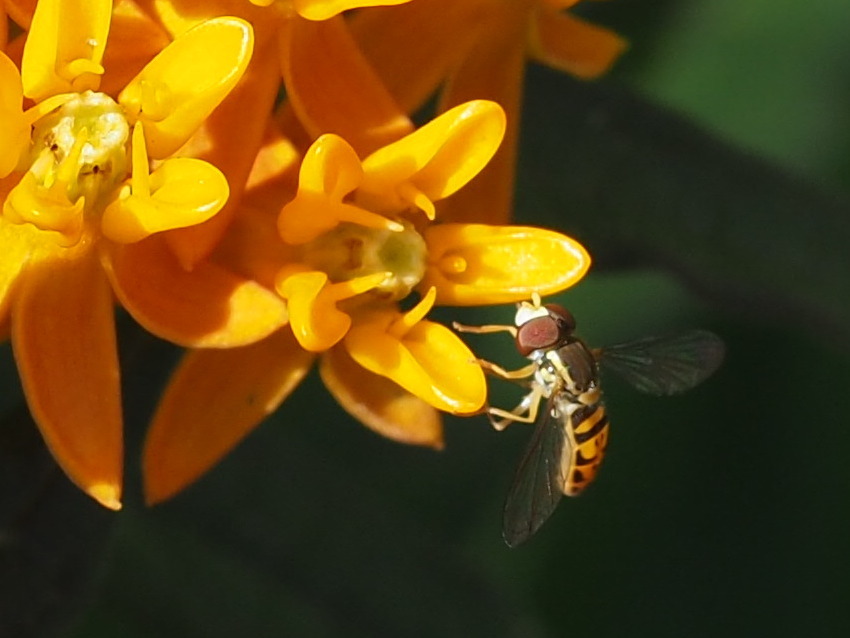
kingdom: Animalia
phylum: Arthropoda
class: Insecta
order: Diptera
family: Syrphidae
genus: Toxomerus
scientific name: Toxomerus marginatus
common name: Syrphid fly
